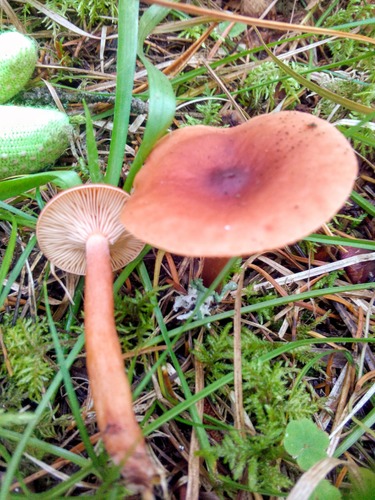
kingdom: Fungi
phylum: Basidiomycota
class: Agaricomycetes
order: Russulales
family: Russulaceae
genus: Lactarius
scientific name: Lactarius rufus
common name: Rufous milk-cap
